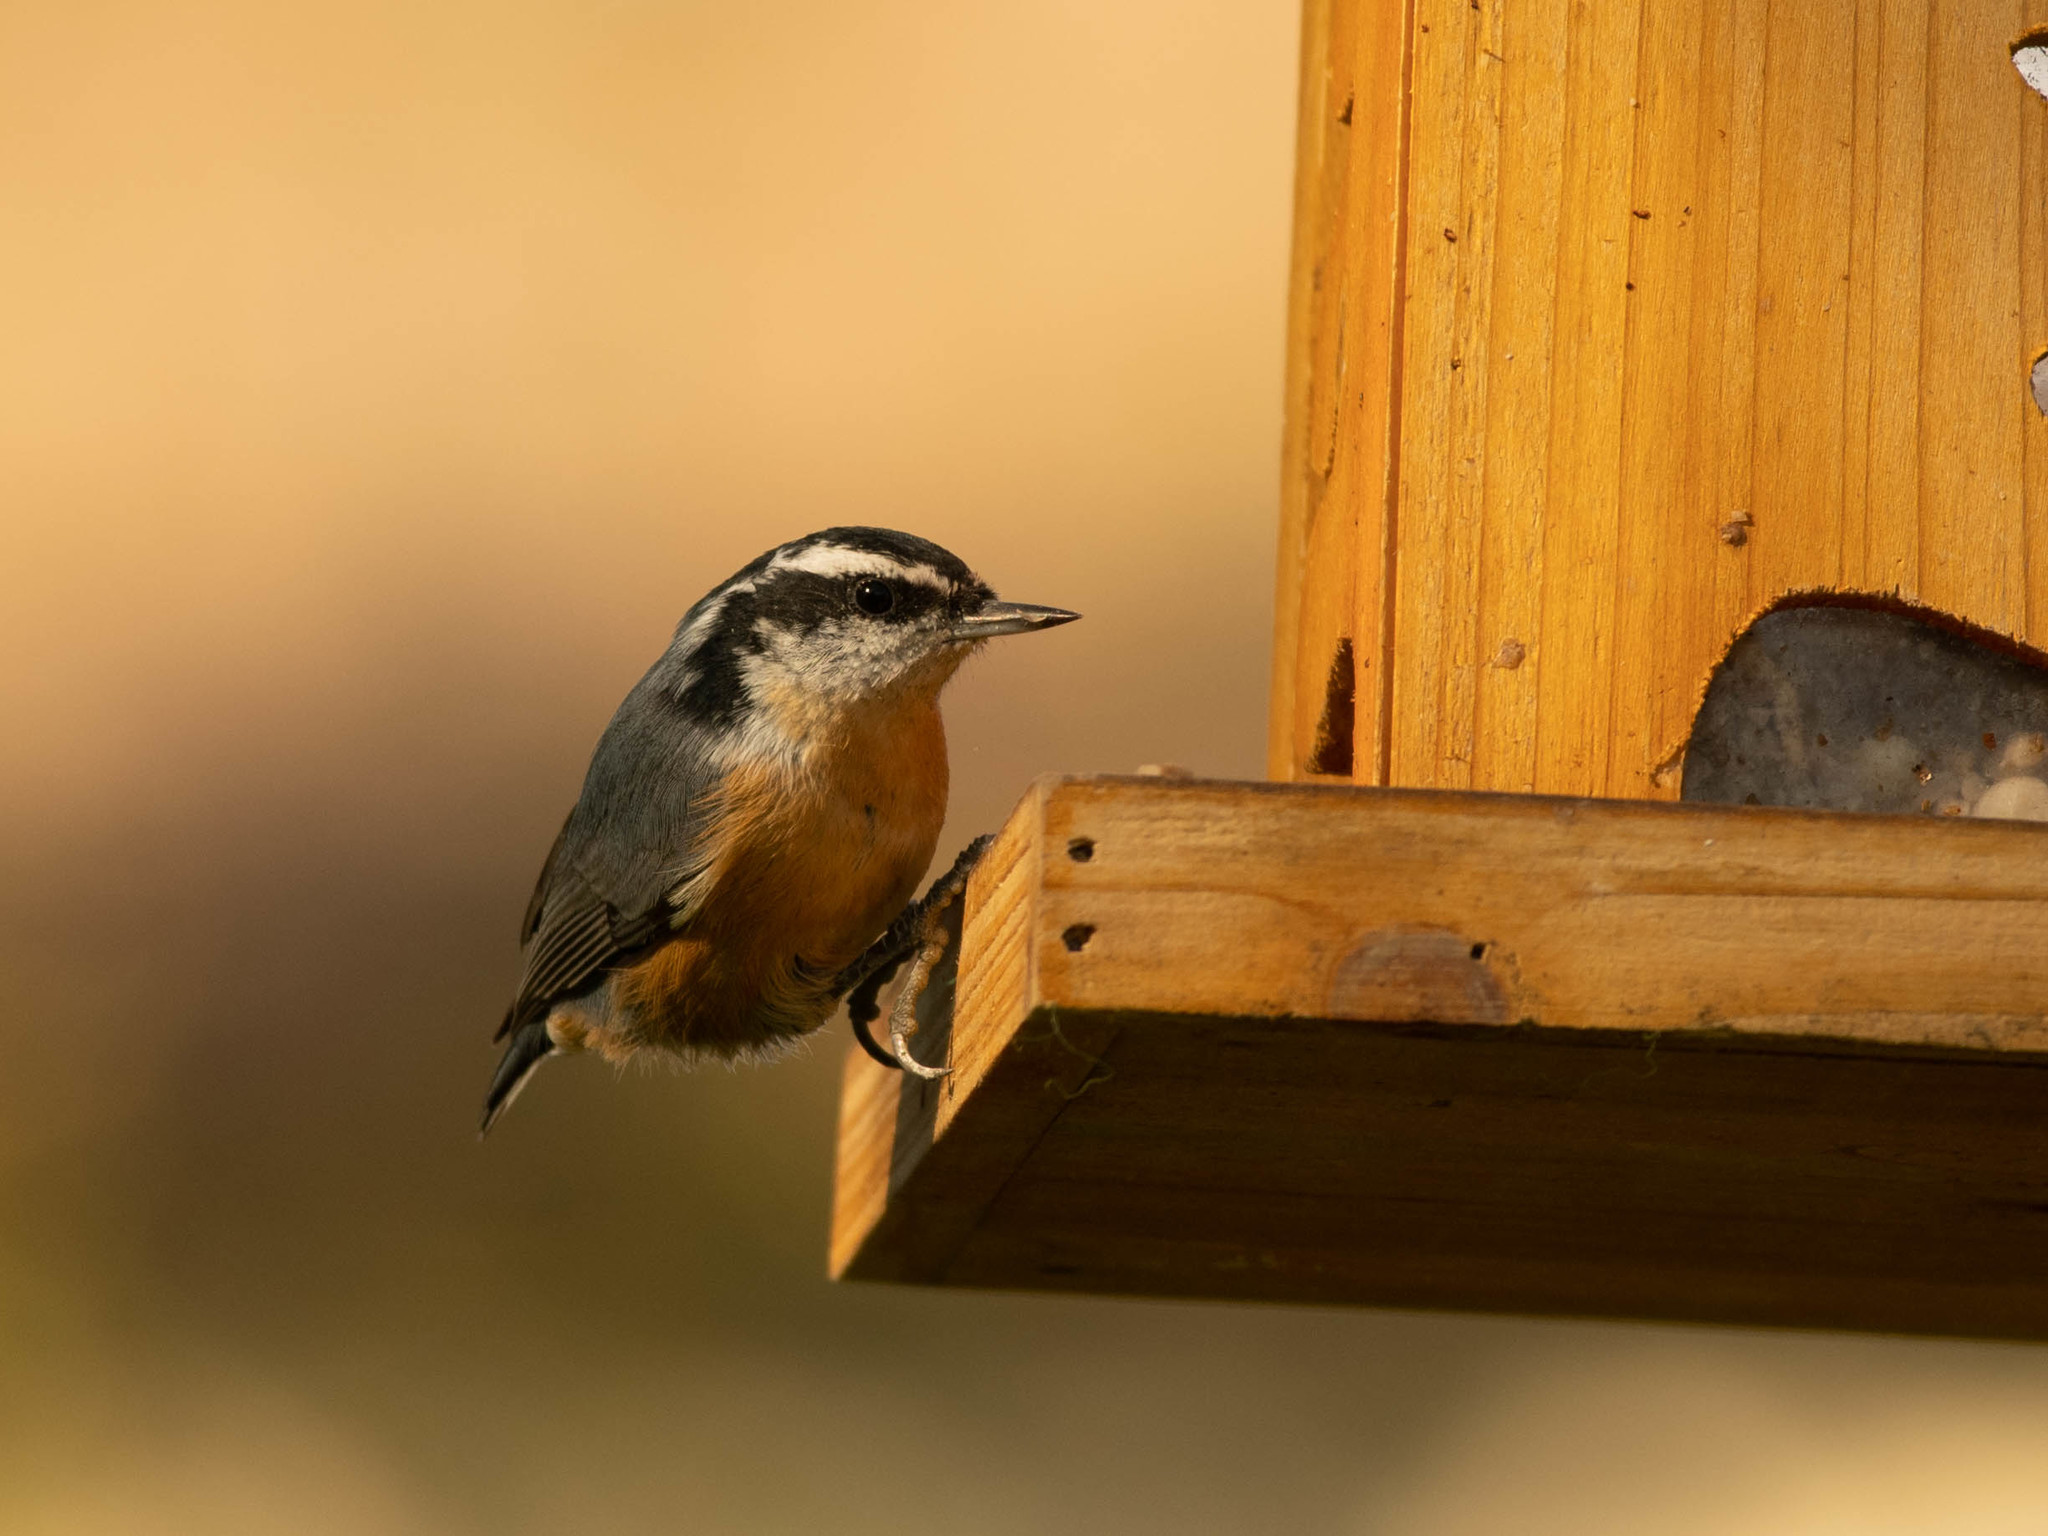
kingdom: Animalia
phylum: Chordata
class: Aves
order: Passeriformes
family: Sittidae
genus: Sitta
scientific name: Sitta canadensis
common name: Red-breasted nuthatch
